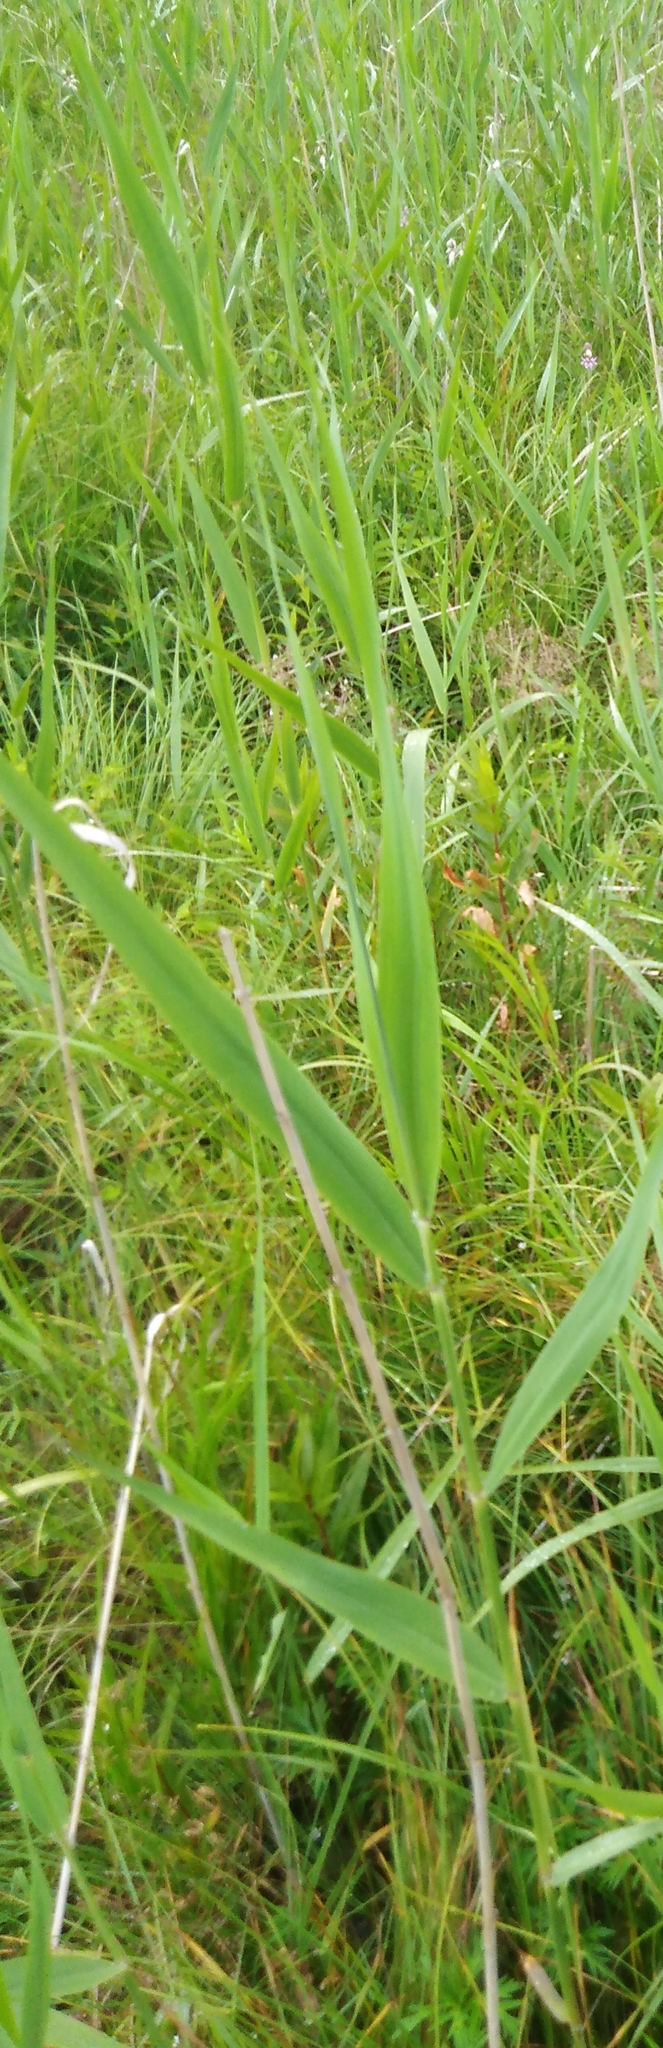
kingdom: Plantae
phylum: Tracheophyta
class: Liliopsida
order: Poales
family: Poaceae
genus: Phragmites
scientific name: Phragmites australis
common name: Common reed
